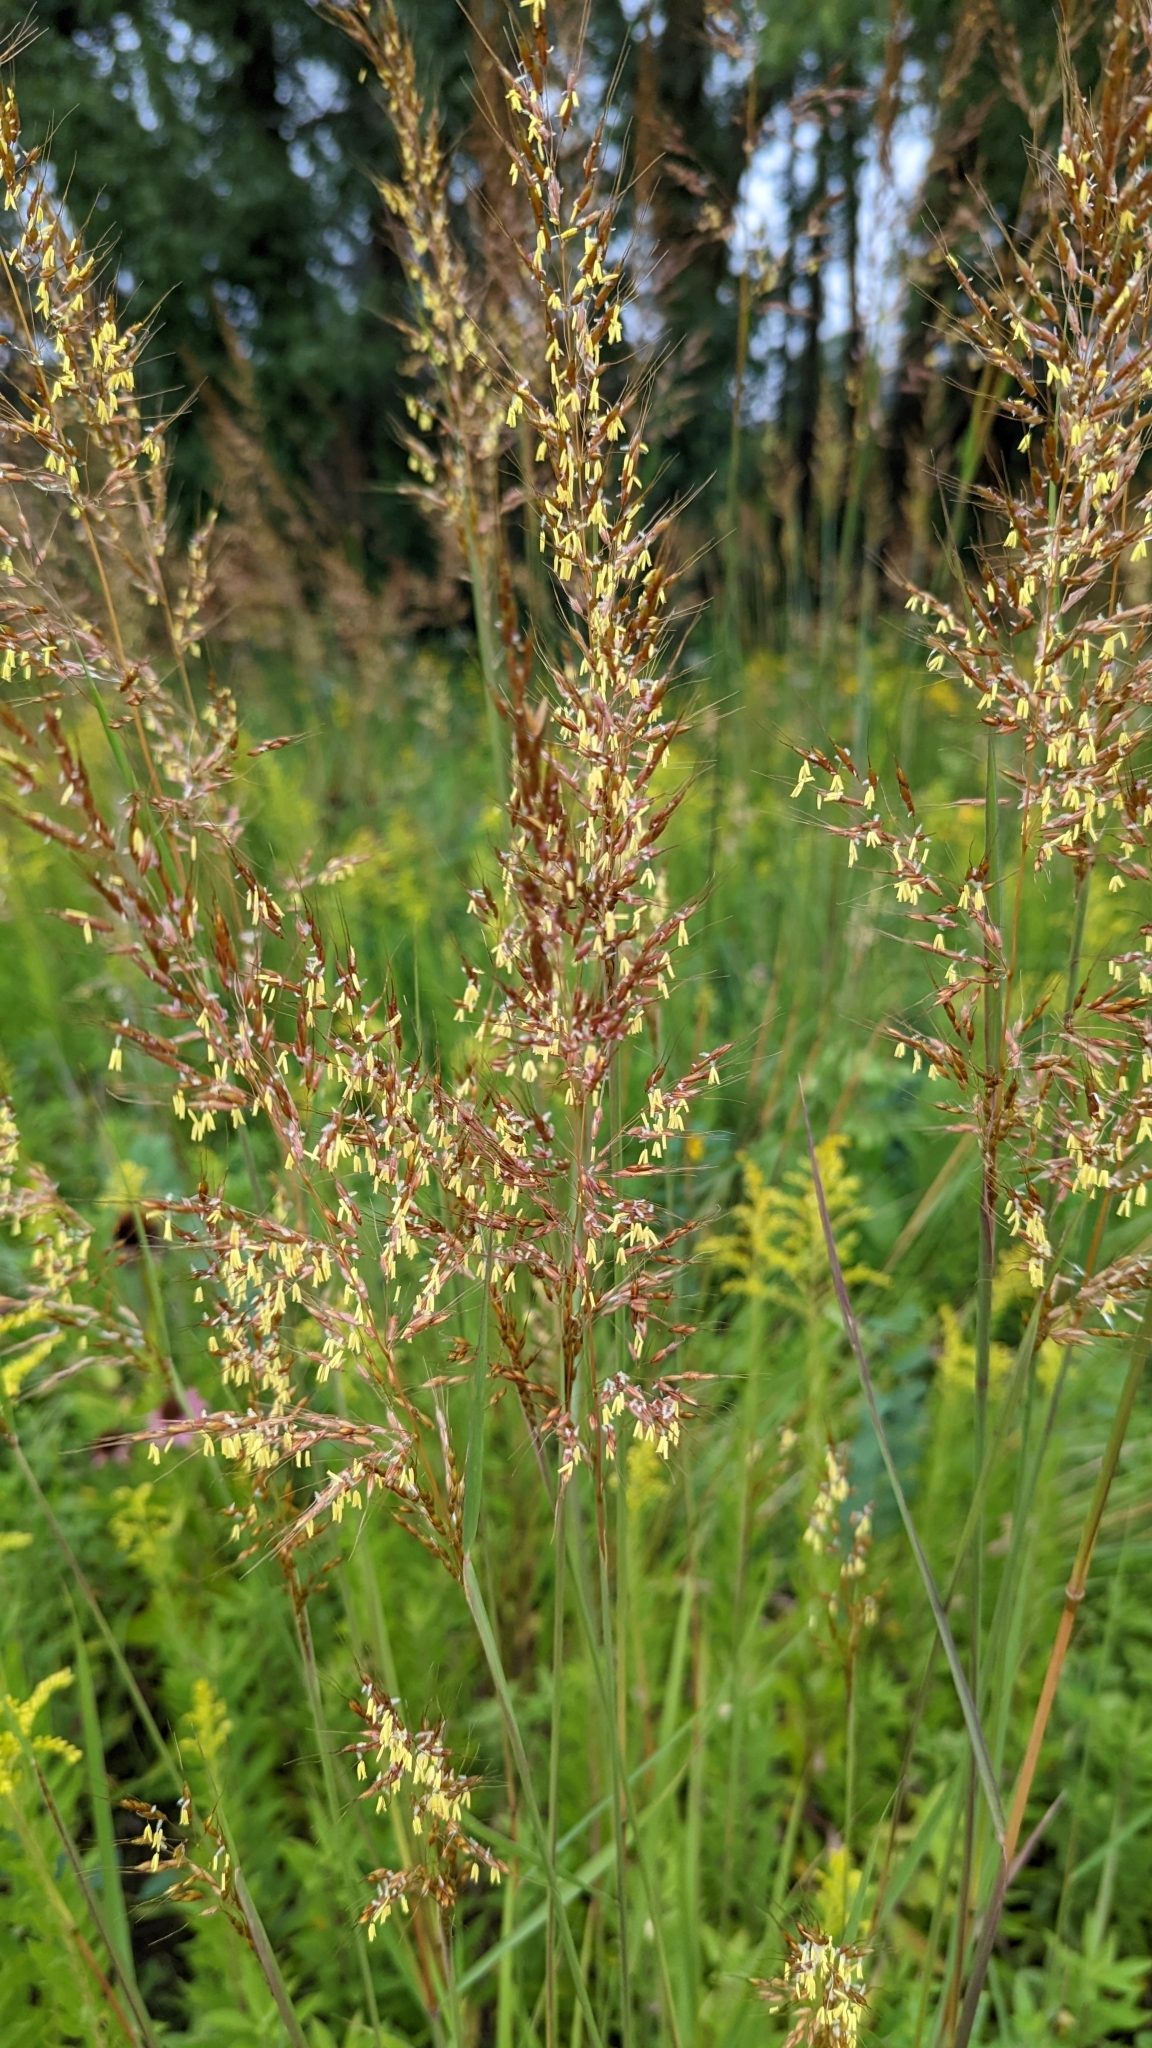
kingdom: Plantae
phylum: Tracheophyta
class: Liliopsida
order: Poales
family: Poaceae
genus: Sorghastrum
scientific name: Sorghastrum nutans
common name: Indian grass
